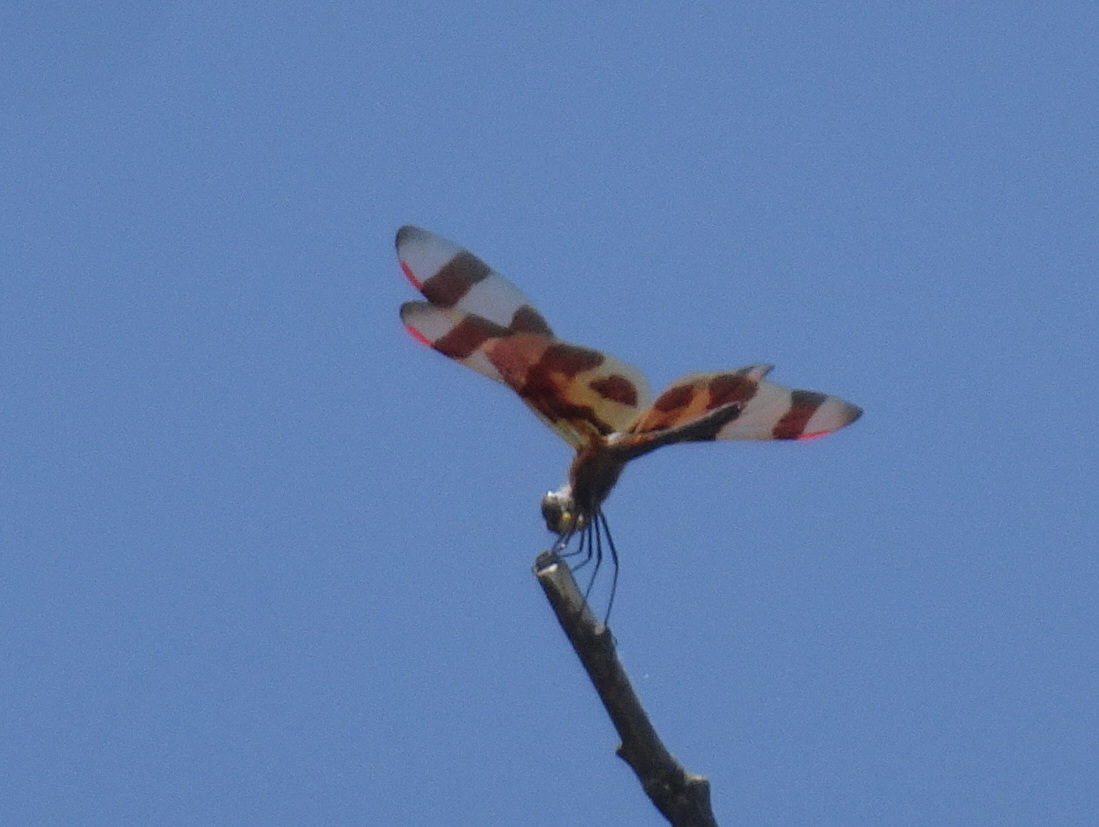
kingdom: Animalia
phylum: Arthropoda
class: Insecta
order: Odonata
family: Libellulidae
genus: Celithemis
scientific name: Celithemis eponina
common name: Halloween pennant
